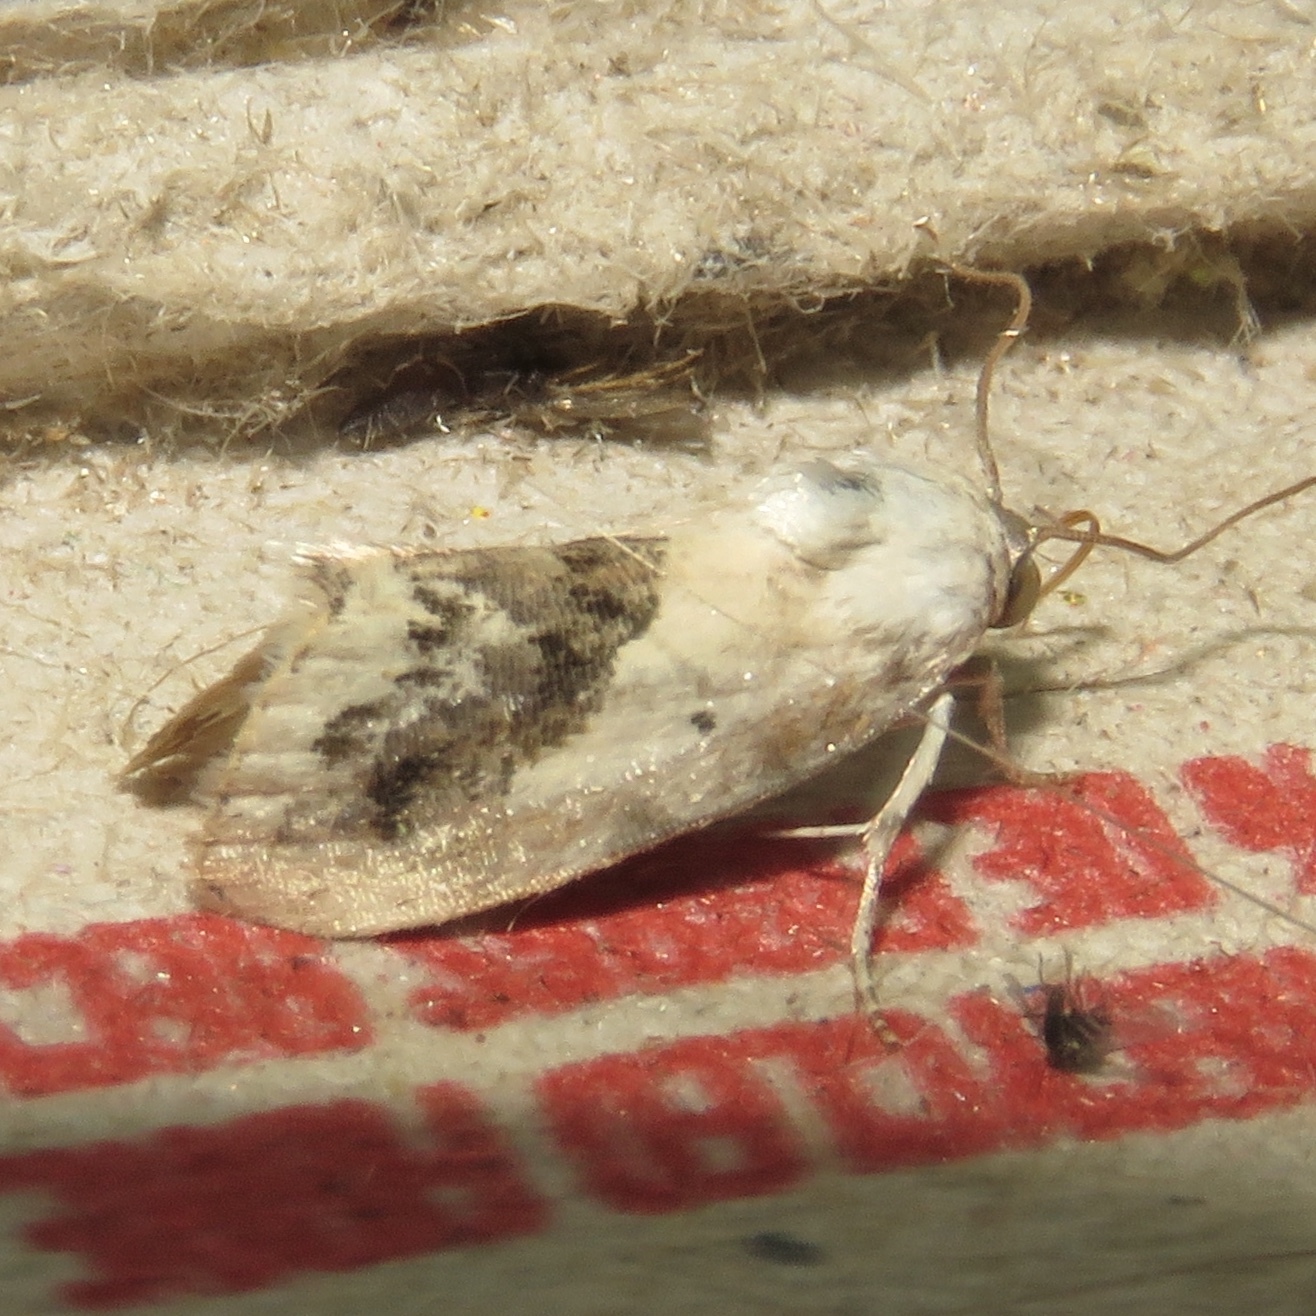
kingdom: Animalia
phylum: Arthropoda
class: Insecta
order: Lepidoptera
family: Noctuidae
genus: Acontia
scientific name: Acontia erastrioides
